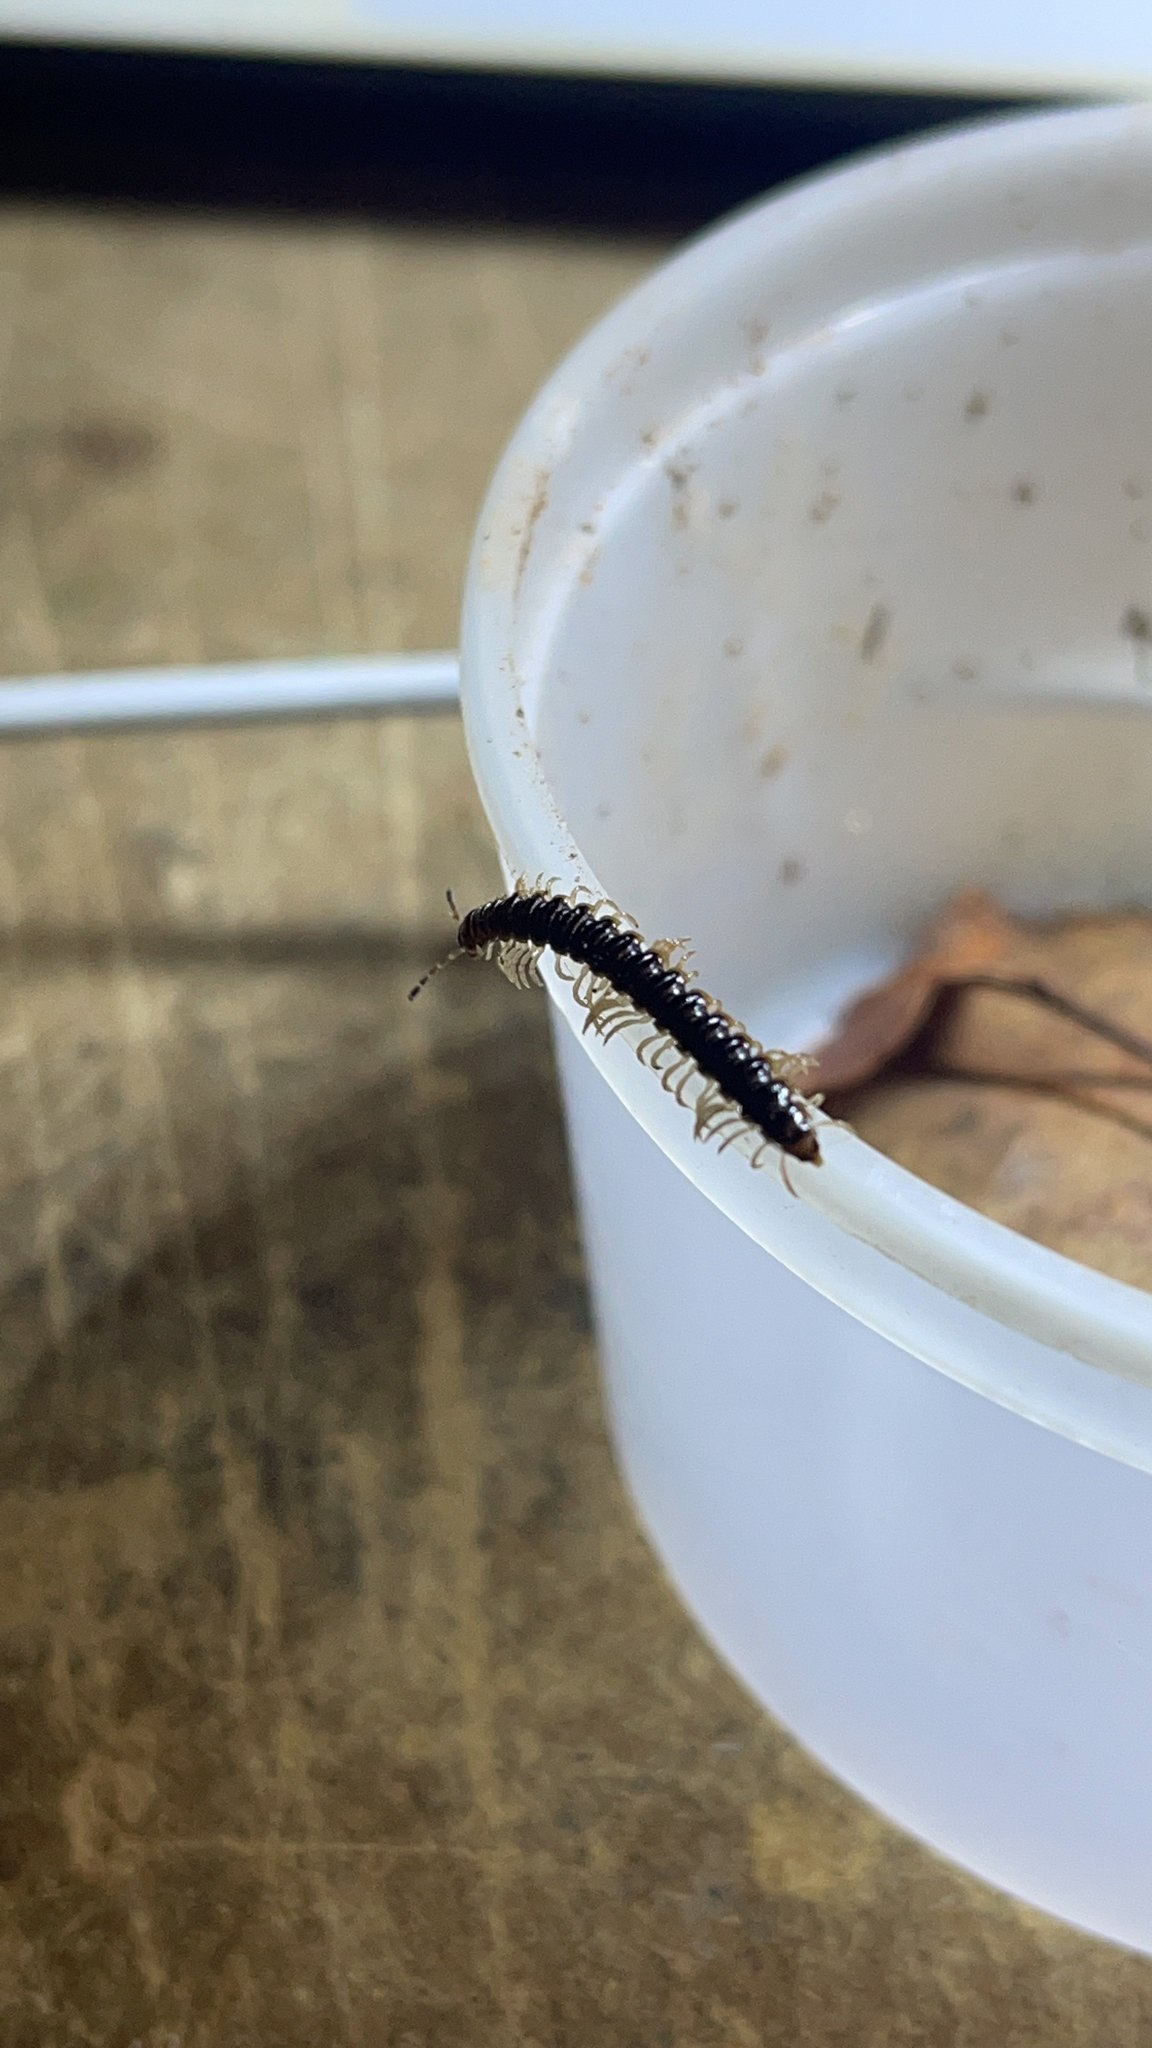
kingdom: Animalia
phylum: Arthropoda
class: Diplopoda
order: Polydesmida
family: Paradoxosomatidae
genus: Oxidus
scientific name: Oxidus gracilis
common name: Greenhouse millipede
